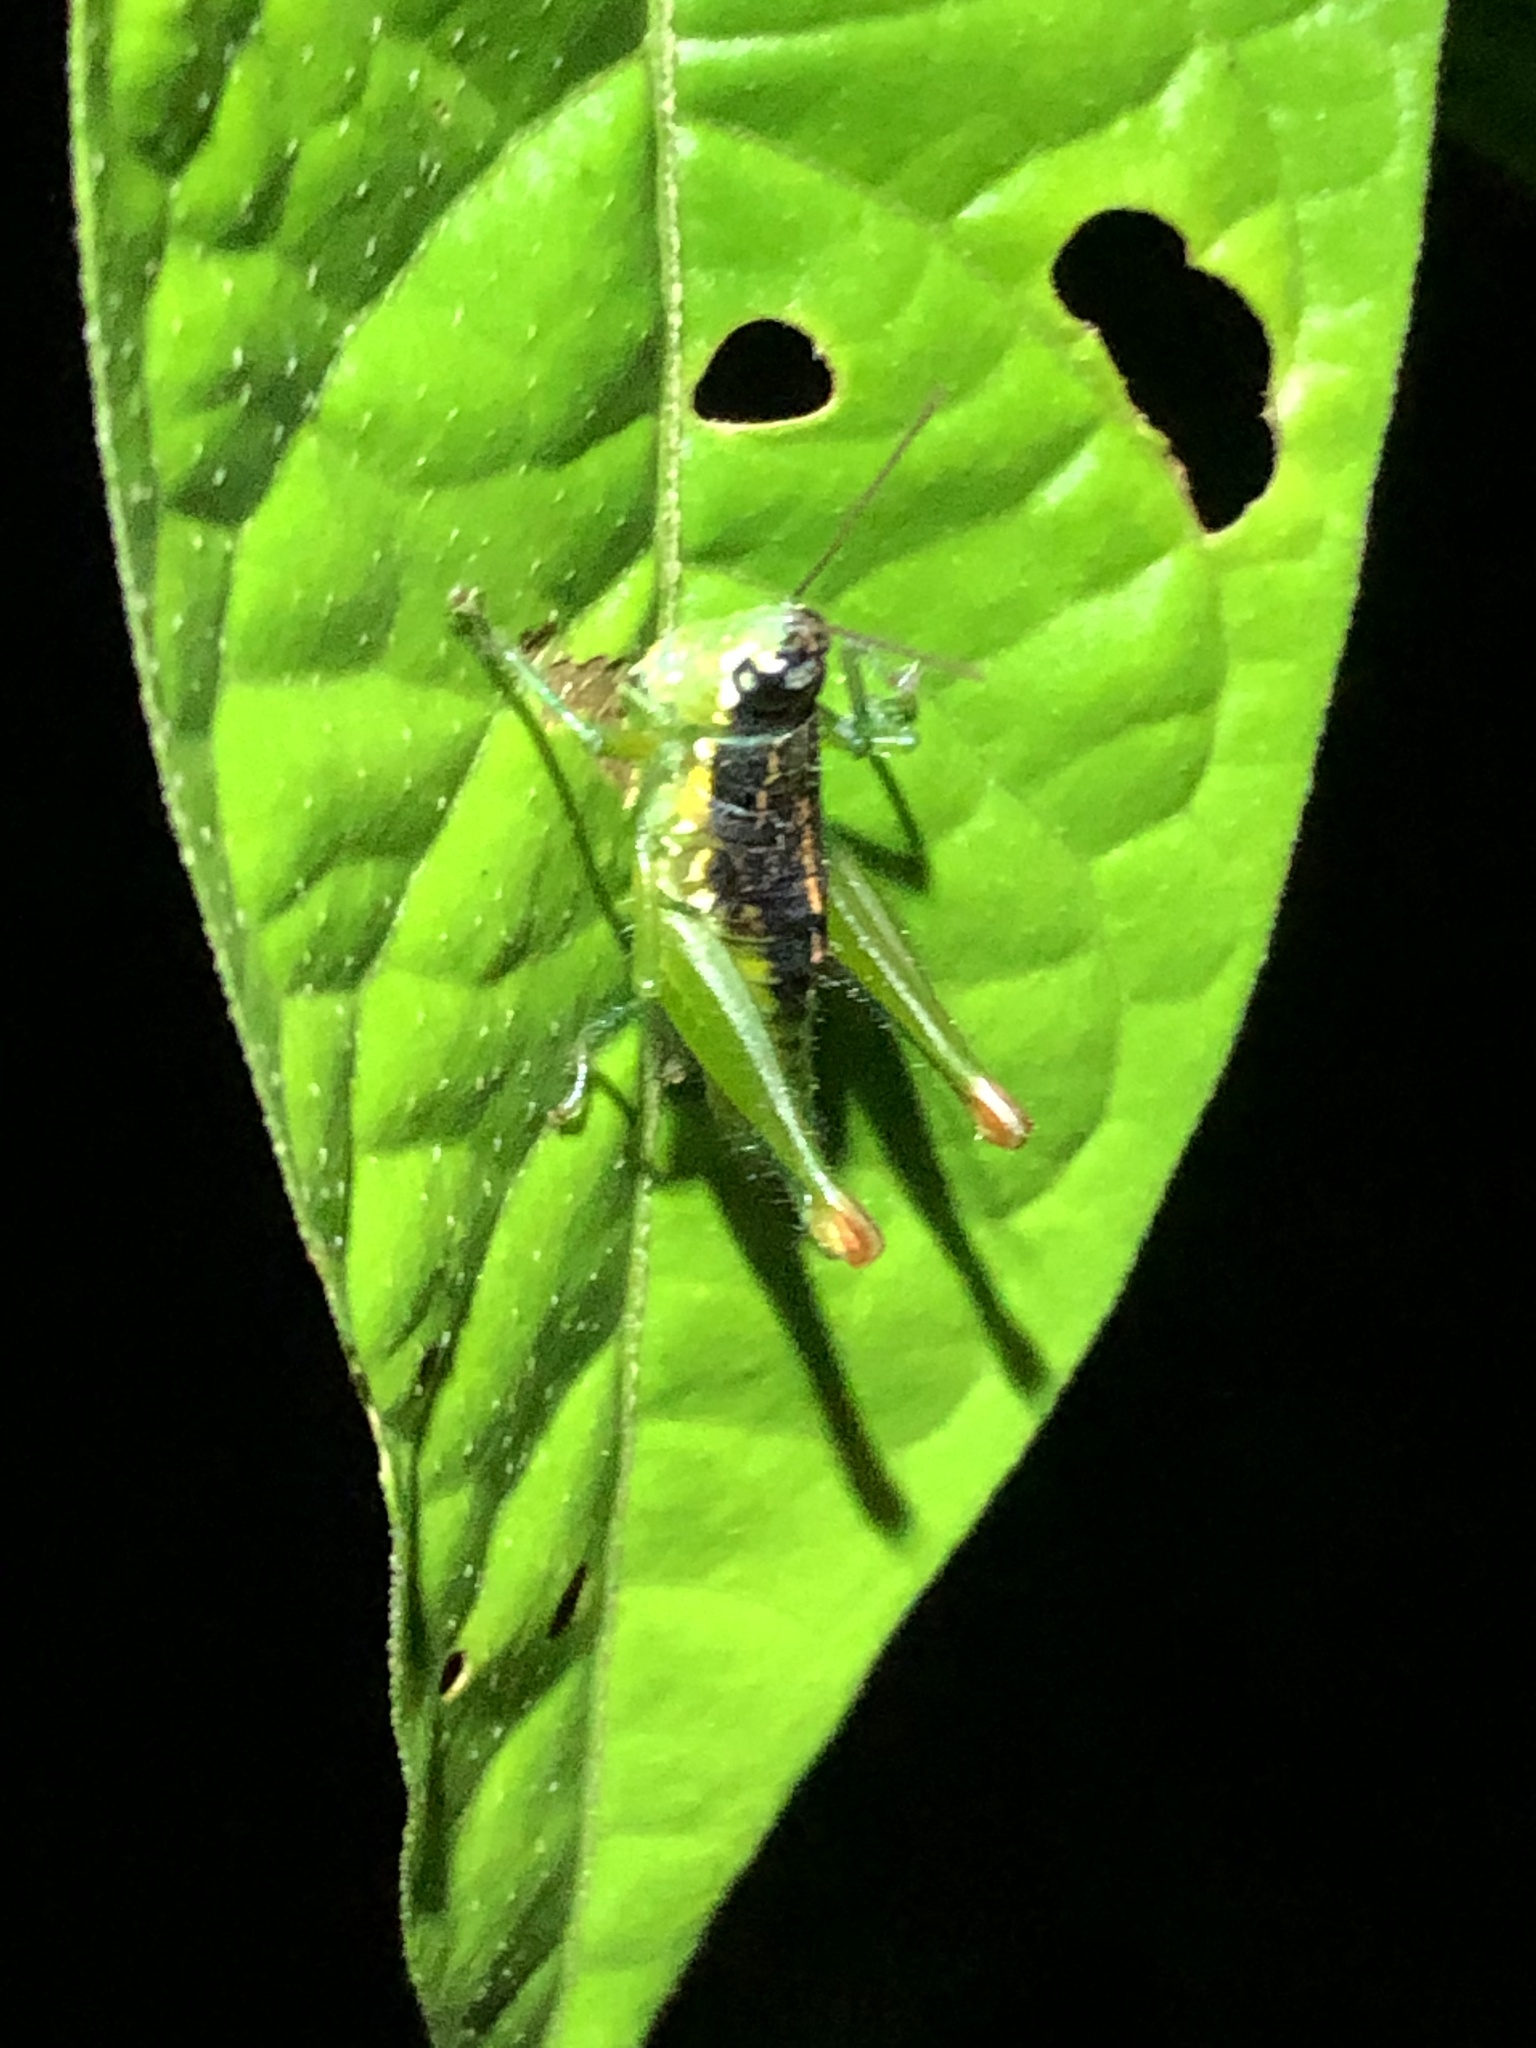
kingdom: Animalia
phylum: Arthropoda
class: Insecta
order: Orthoptera
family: Acrididae
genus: Liebermannacris
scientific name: Liebermannacris dorsualis
